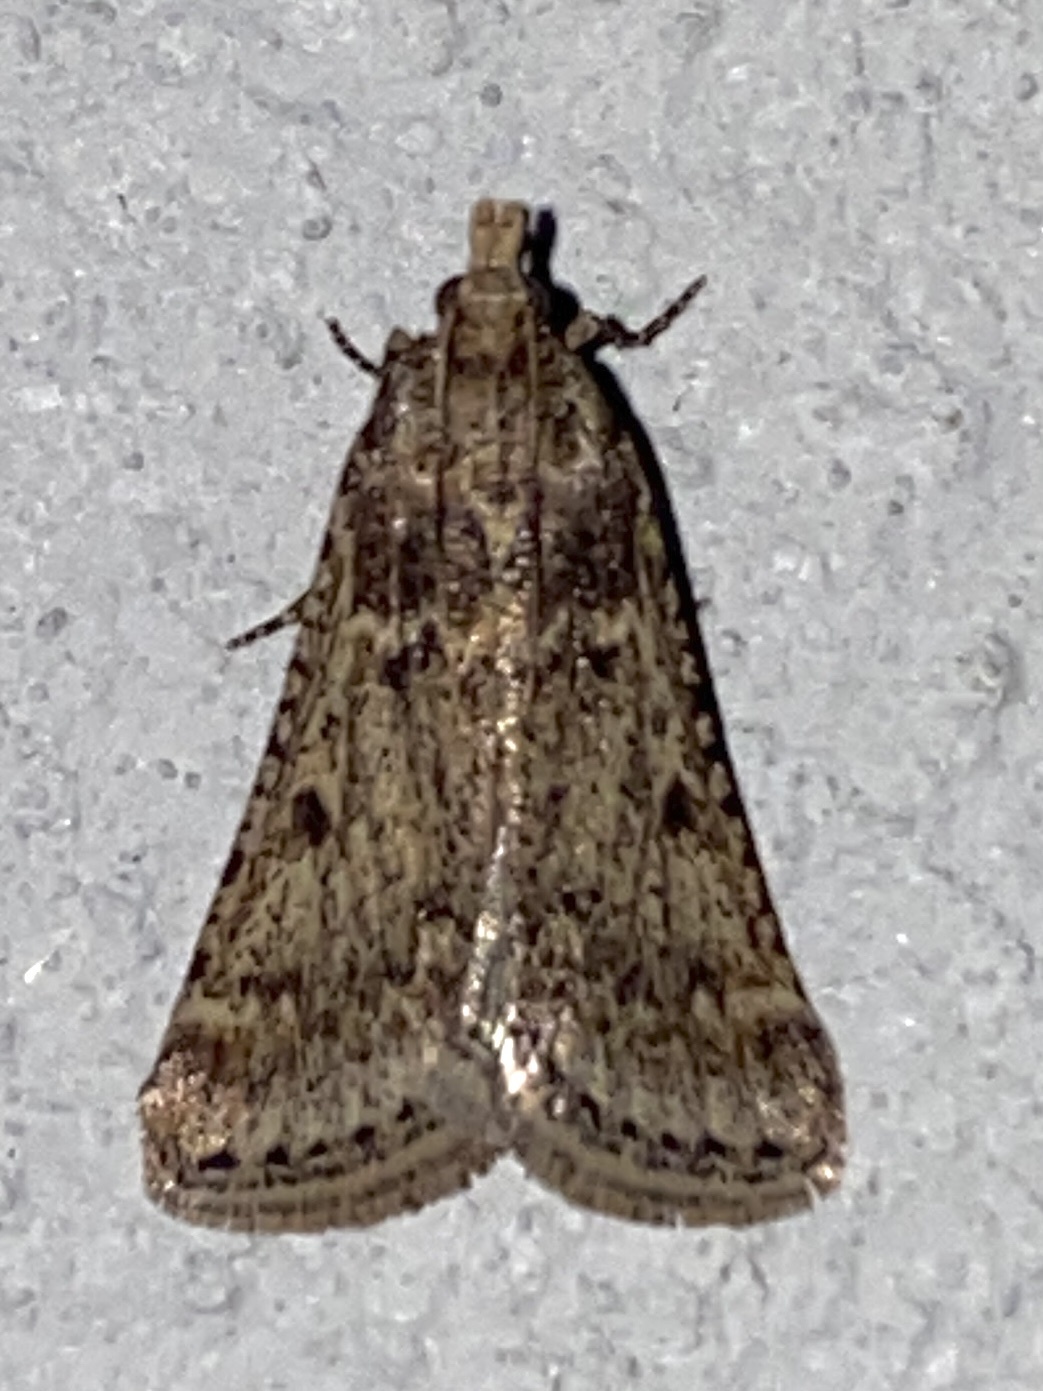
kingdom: Animalia
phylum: Arthropoda
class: Insecta
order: Lepidoptera
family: Pyralidae
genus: Philotis
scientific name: Philotis basalis
